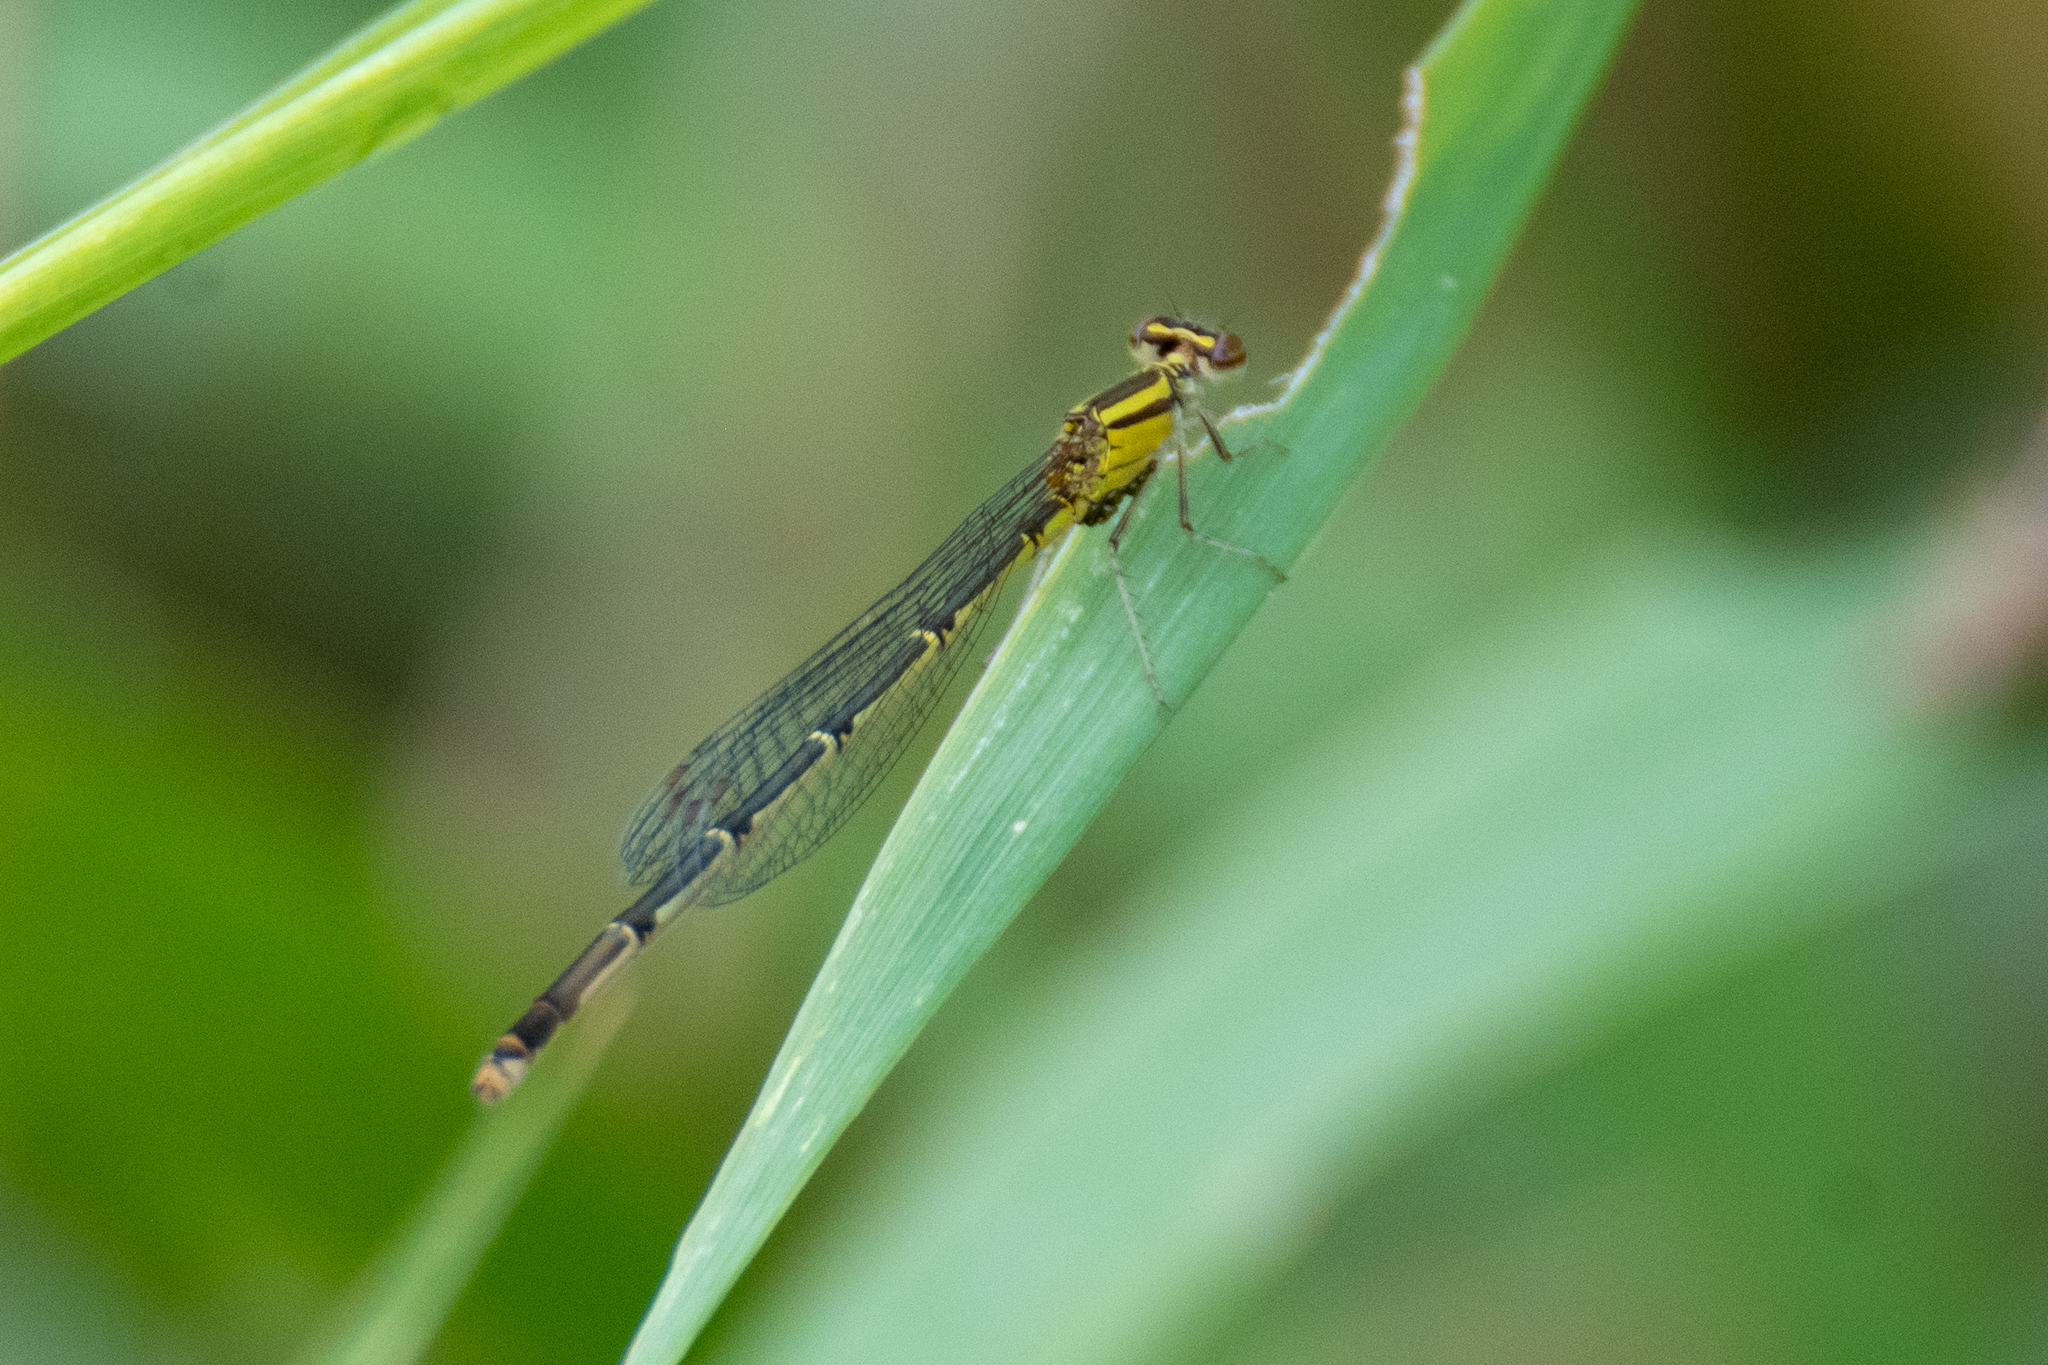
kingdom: Animalia
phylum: Arthropoda
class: Insecta
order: Odonata
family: Coenagrionidae
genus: Enallagma
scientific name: Enallagma signatum
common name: Orange bluet
